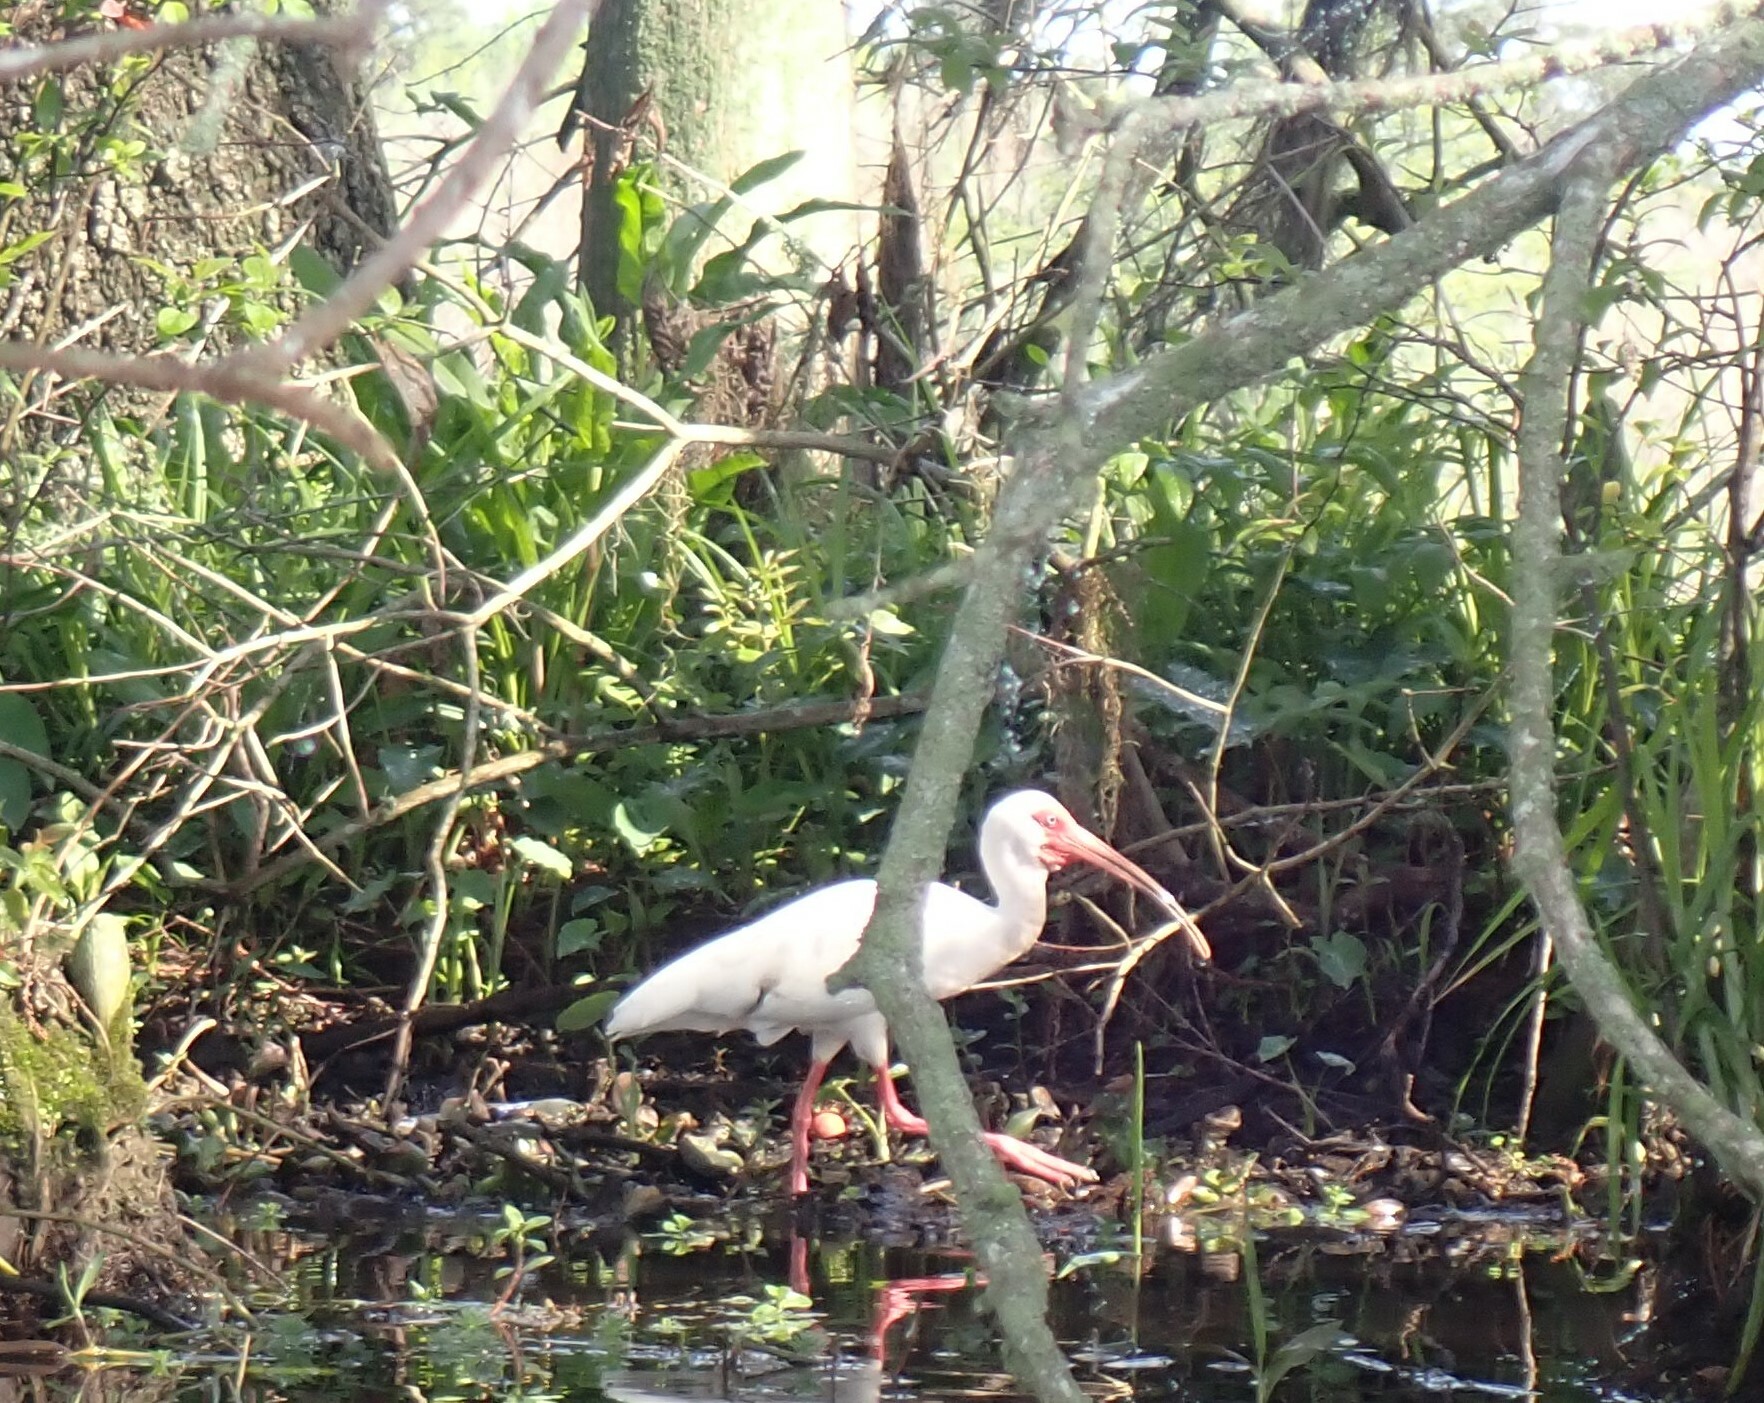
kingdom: Animalia
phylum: Chordata
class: Aves
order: Pelecaniformes
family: Threskiornithidae
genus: Eudocimus
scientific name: Eudocimus albus
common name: White ibis
